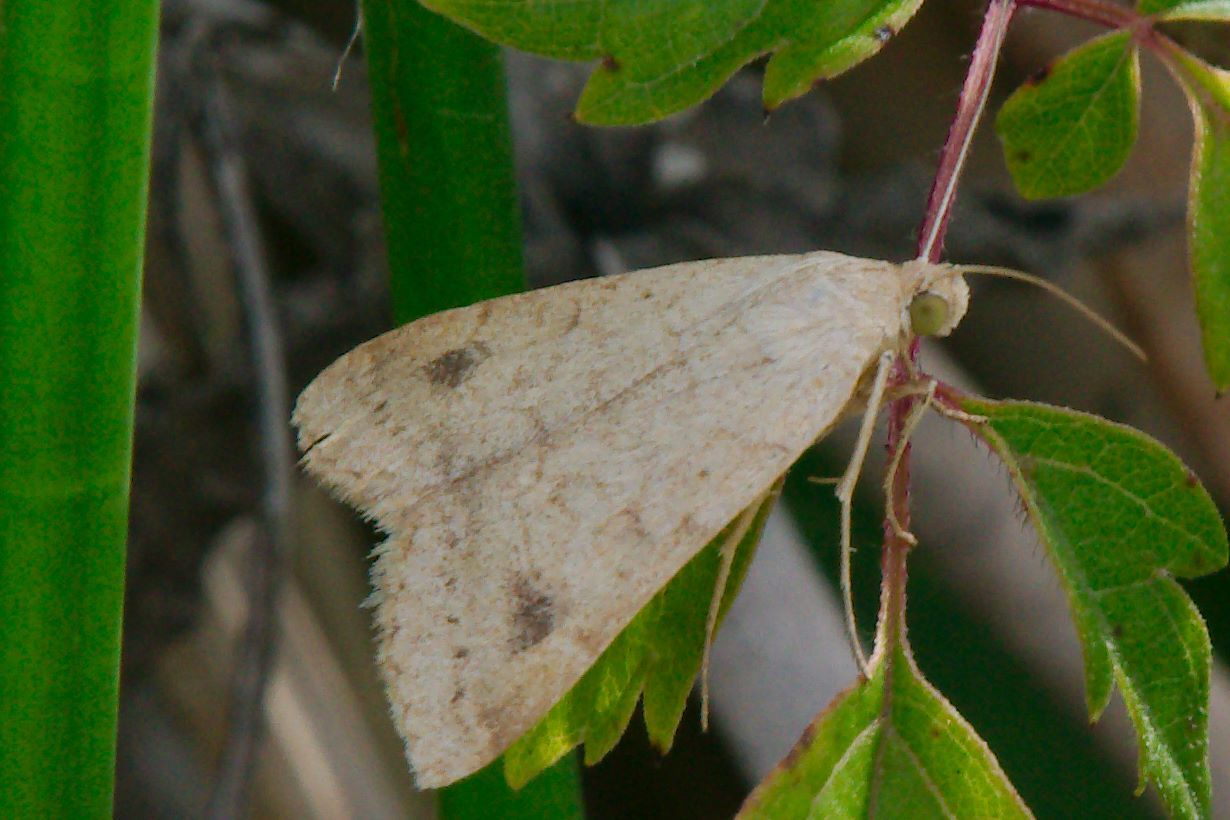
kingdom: Animalia
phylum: Arthropoda
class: Insecta
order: Lepidoptera
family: Erebidae
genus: Caenurgia
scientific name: Caenurgia chloropha
